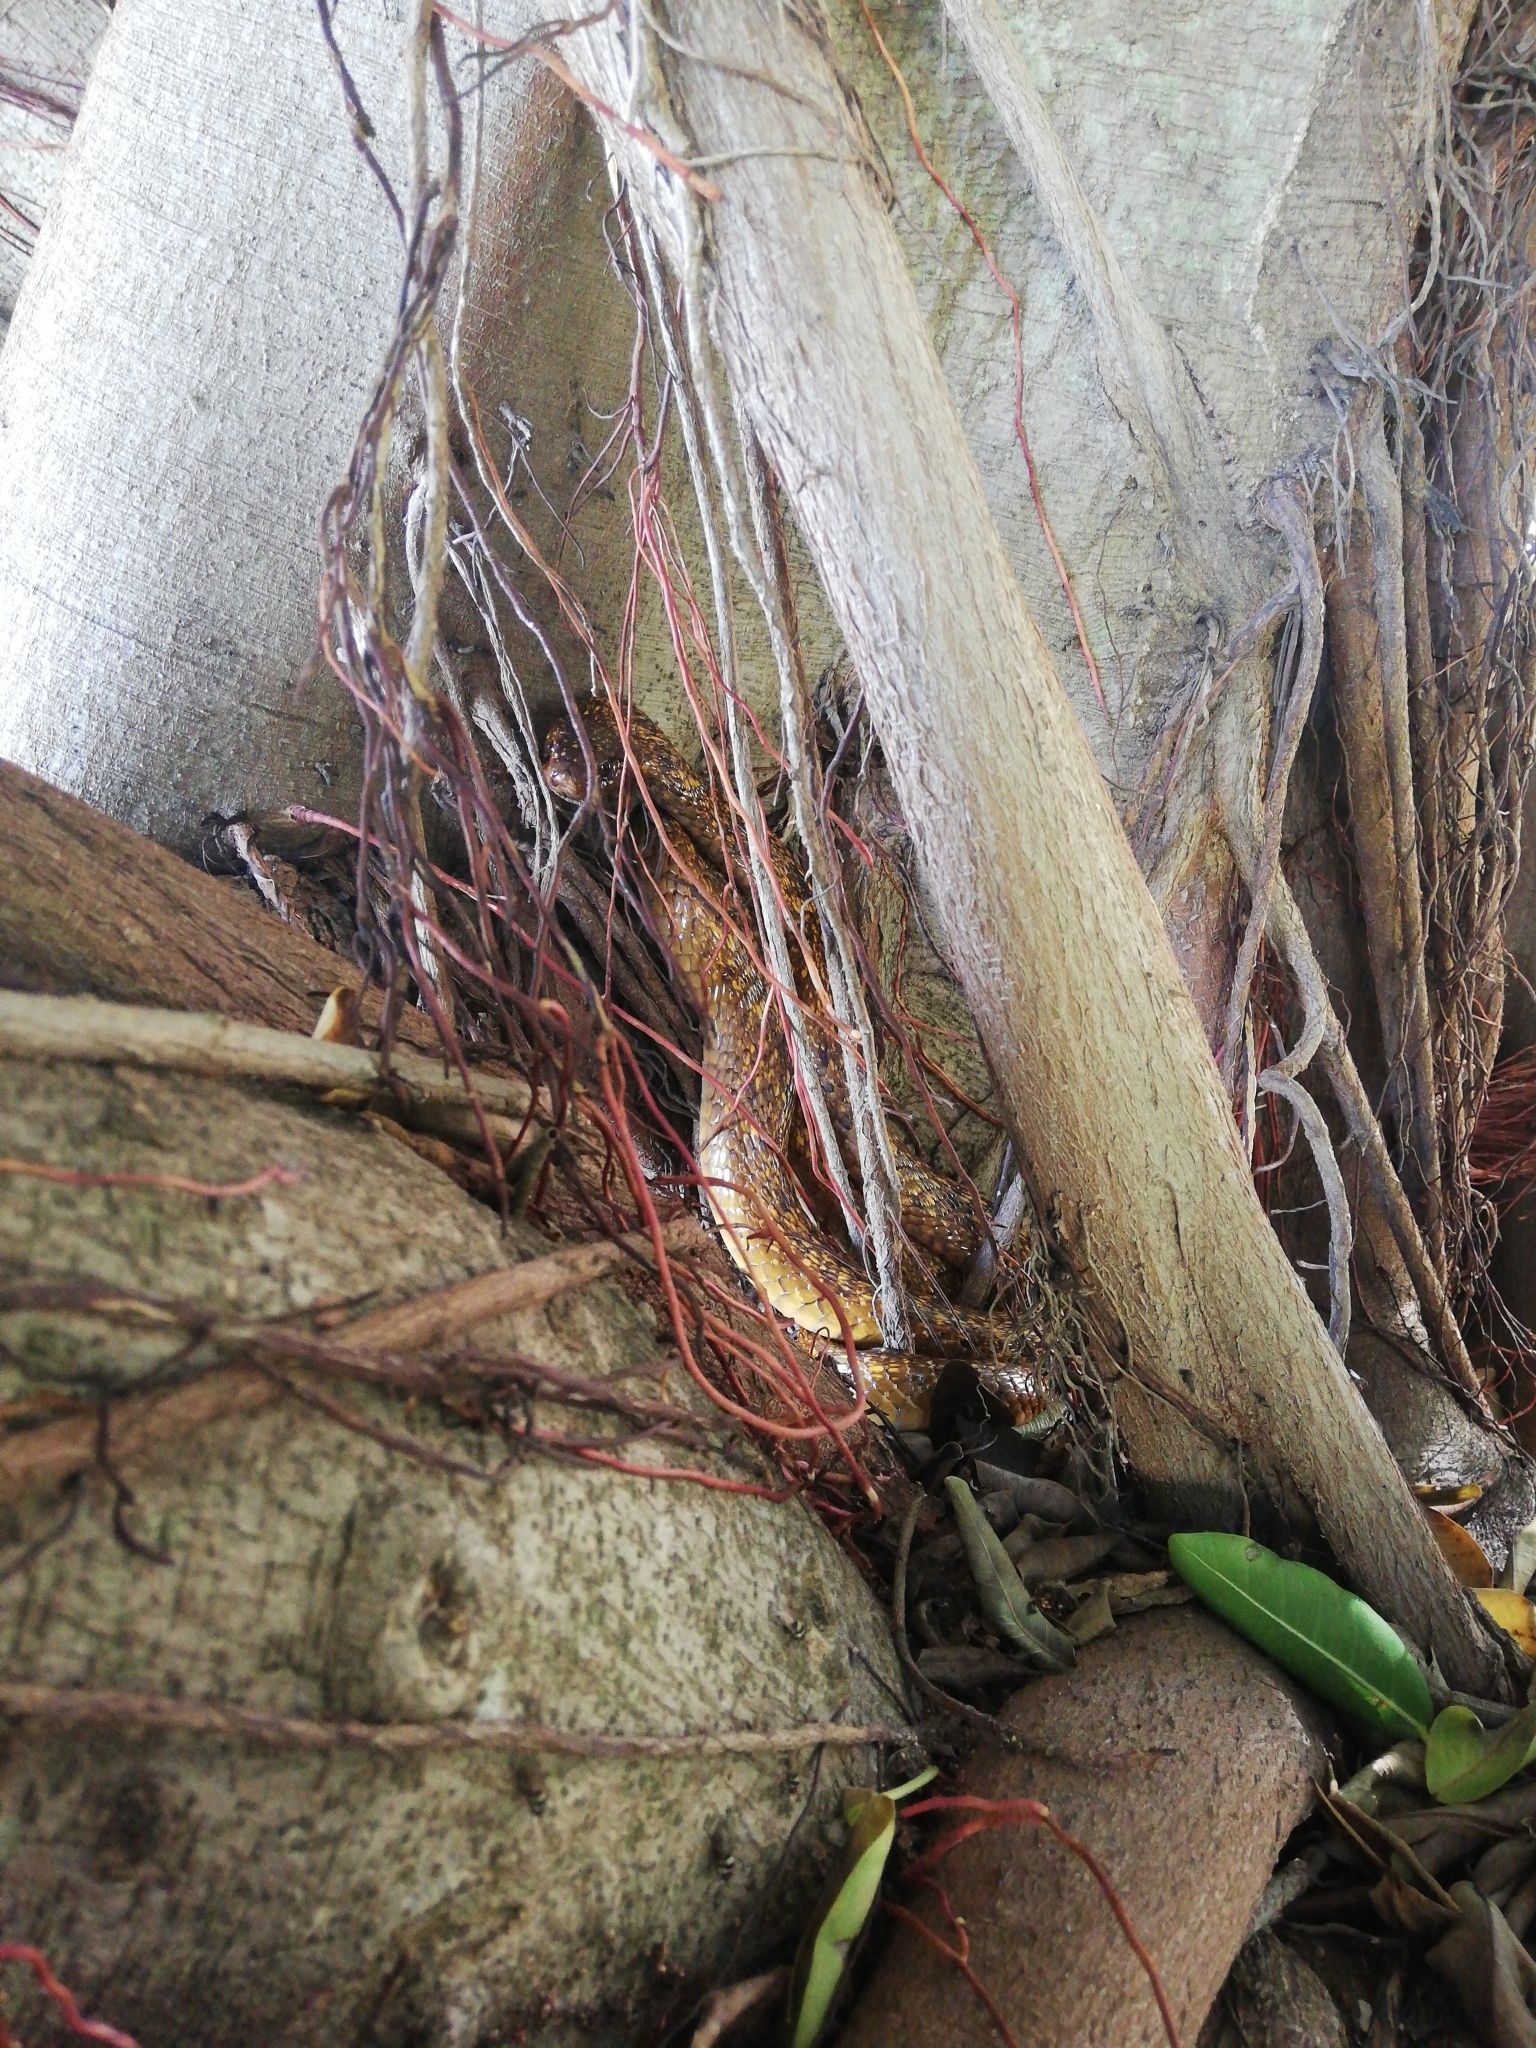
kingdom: Animalia
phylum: Chordata
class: Squamata
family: Elapidae
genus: Naja
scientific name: Naja nivea
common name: Cape cobra
